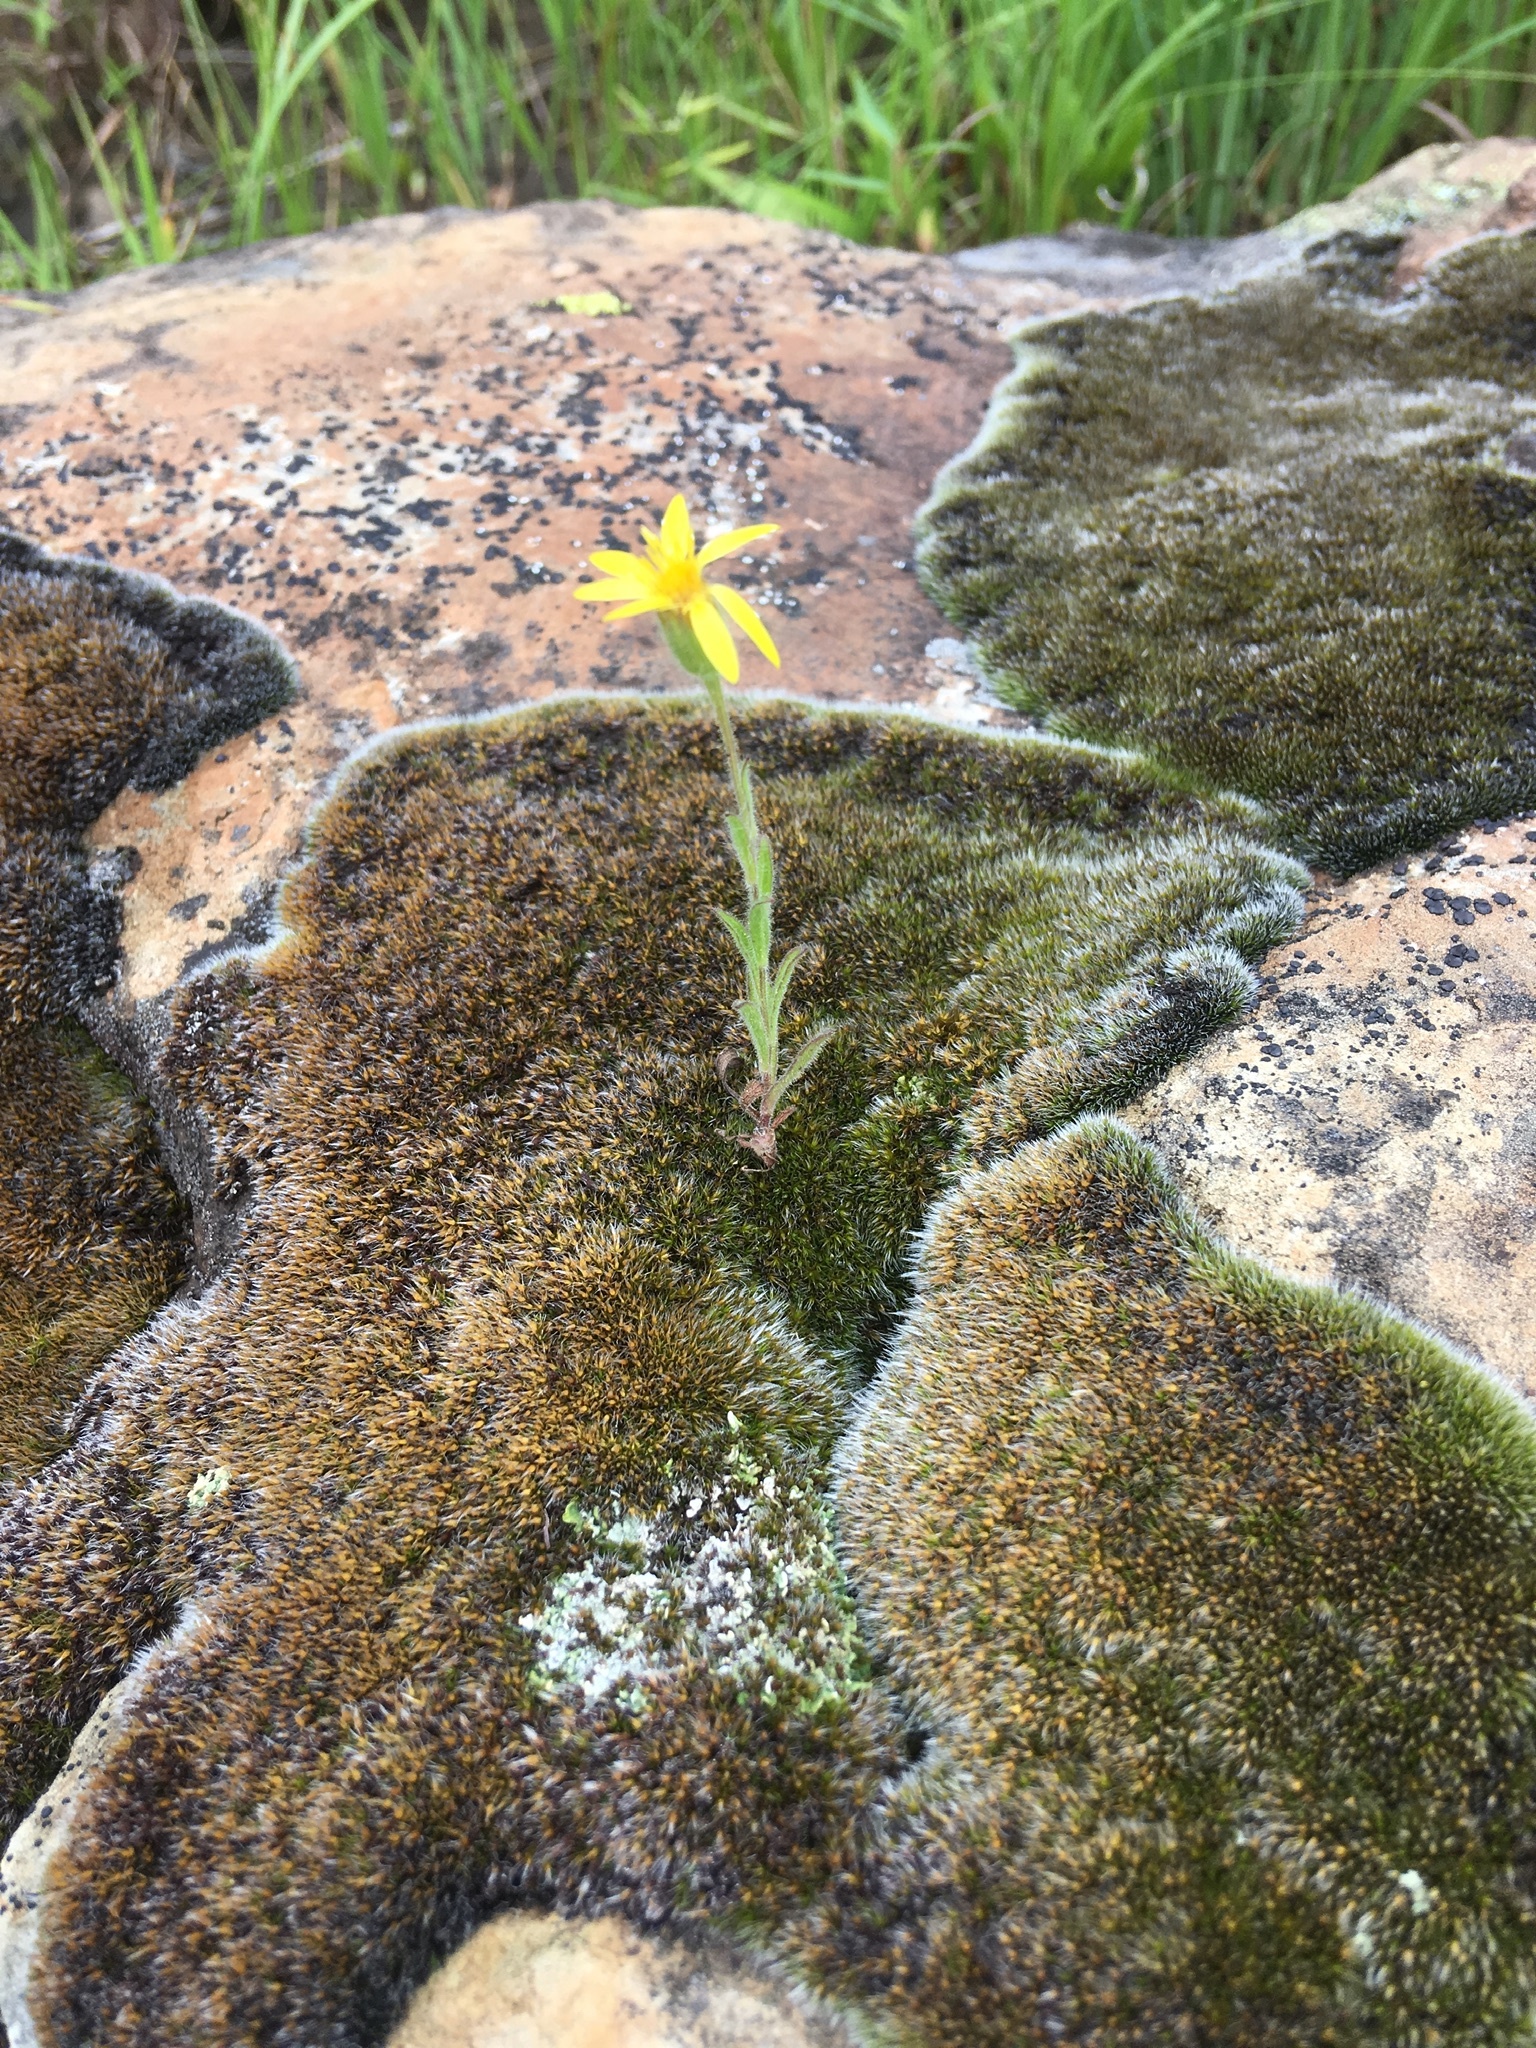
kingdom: Plantae
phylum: Tracheophyta
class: Magnoliopsida
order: Asterales
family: Asteraceae
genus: Bradburia
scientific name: Bradburia pilosa
